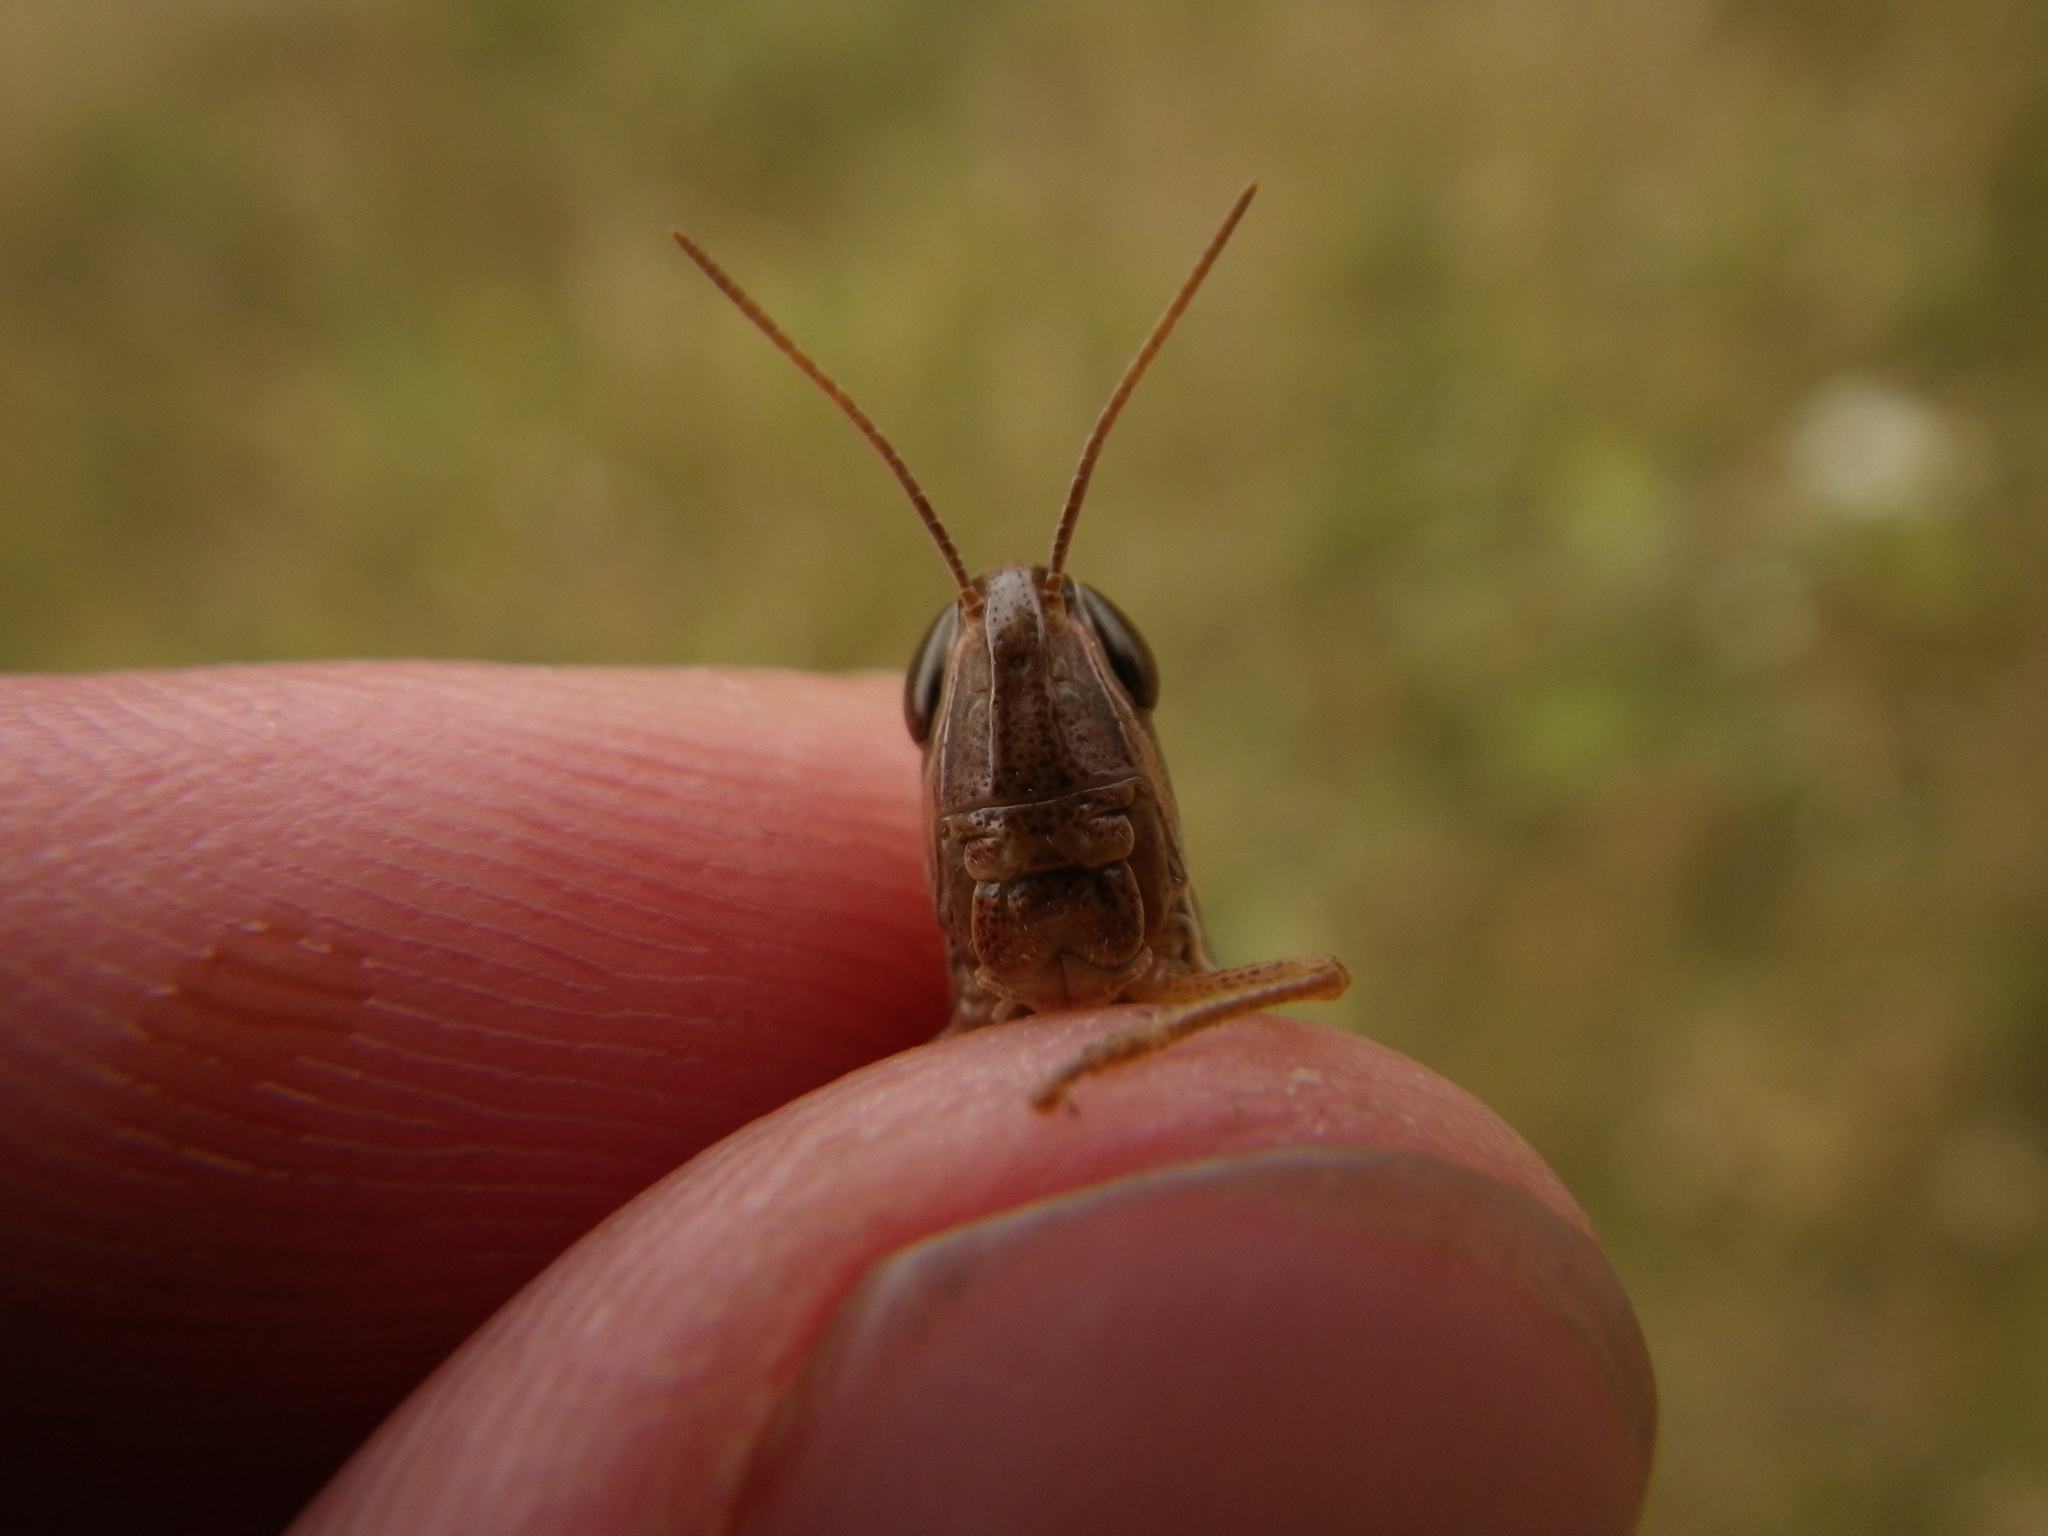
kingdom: Animalia
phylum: Arthropoda
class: Insecta
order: Orthoptera
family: Acrididae
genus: Euchorthippus
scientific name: Euchorthippus declivus
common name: Common straw grasshopper
